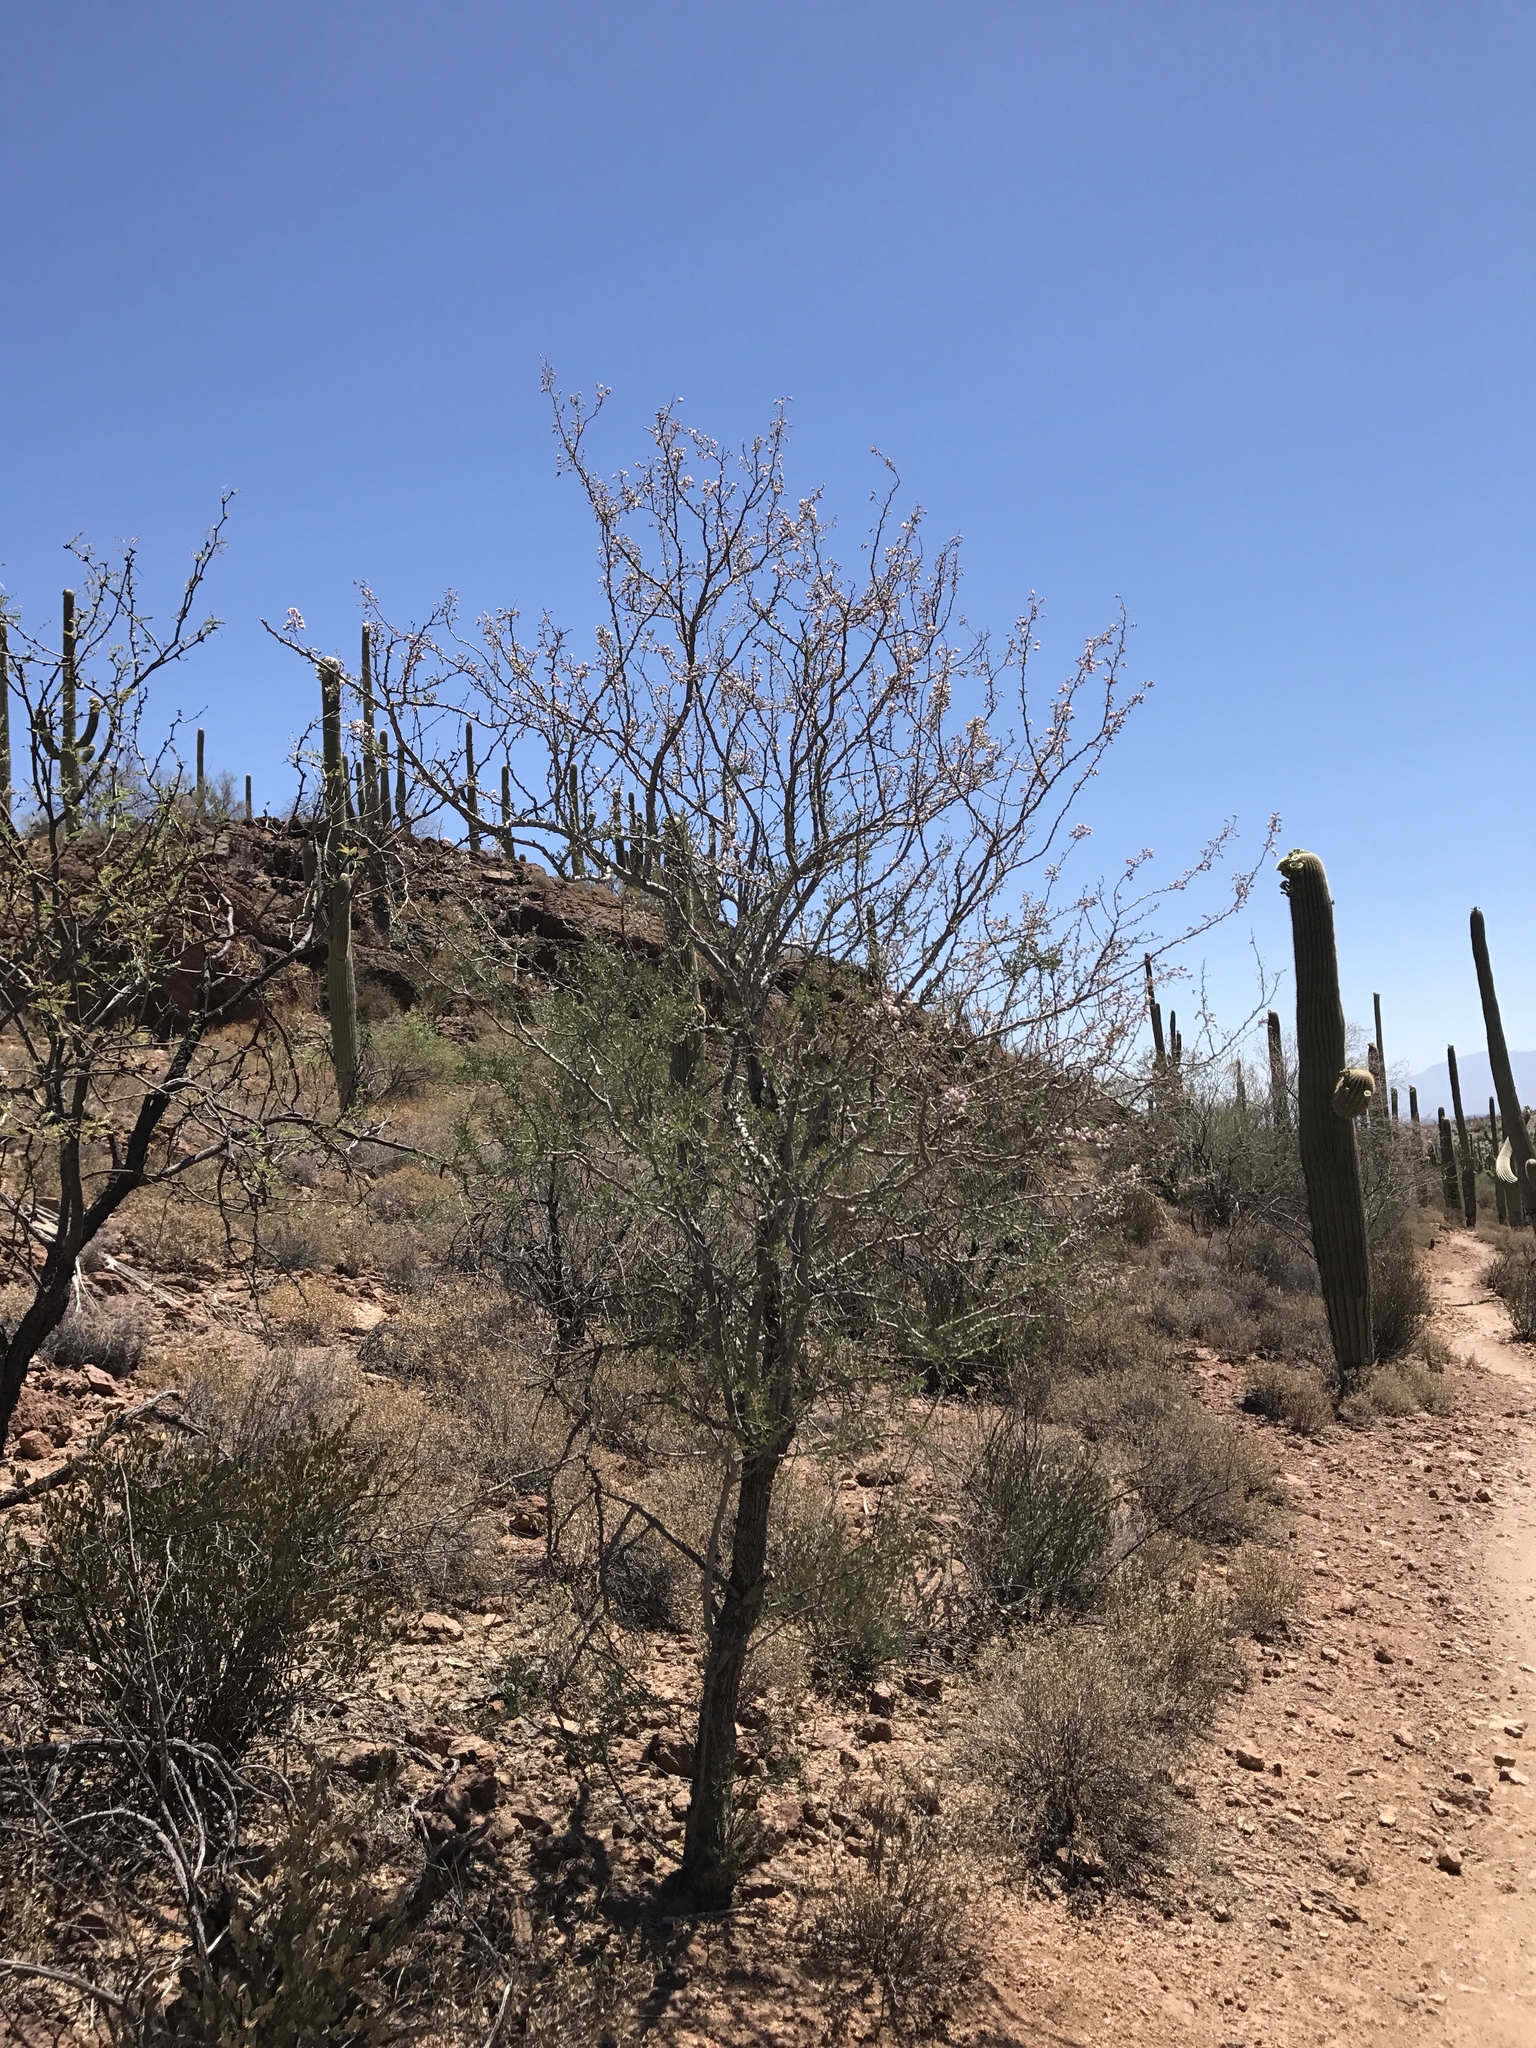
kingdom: Plantae
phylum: Tracheophyta
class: Magnoliopsida
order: Fabales
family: Fabaceae
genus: Olneya
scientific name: Olneya tesota
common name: Desert ironwood
